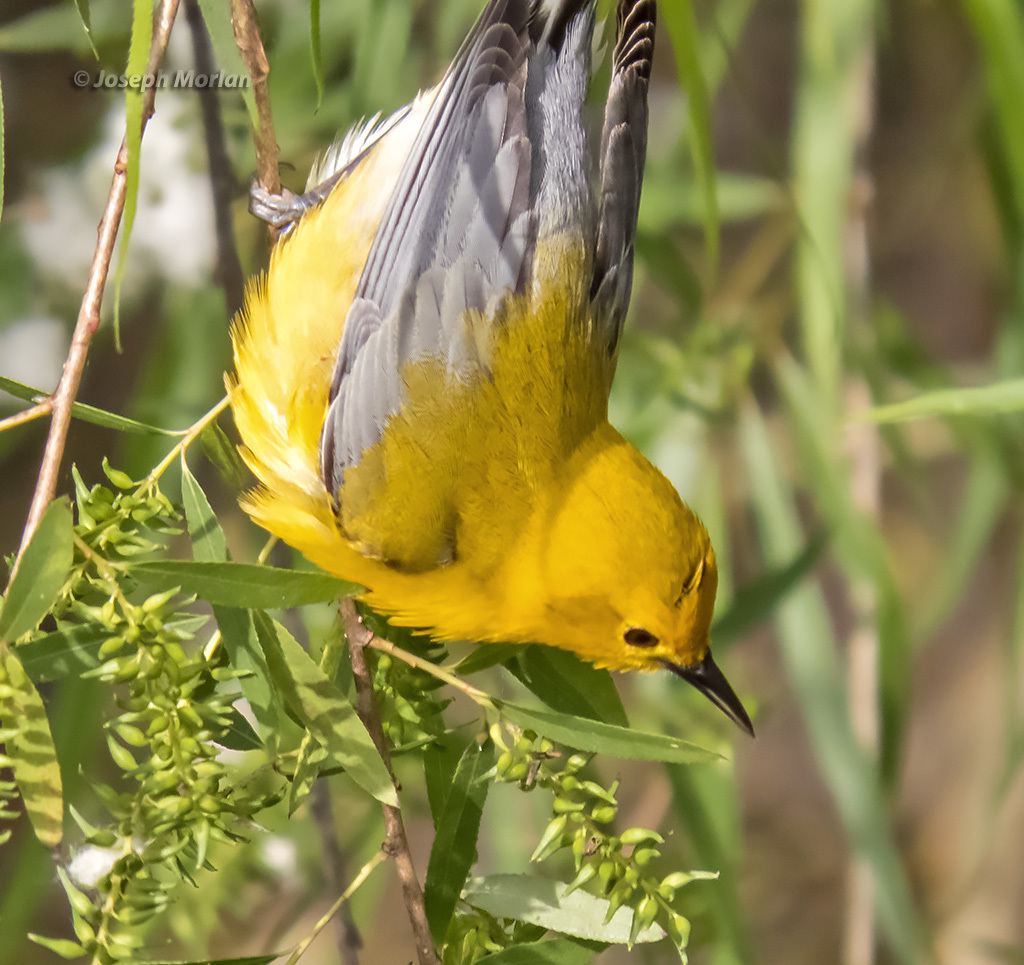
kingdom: Animalia
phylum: Chordata
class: Aves
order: Passeriformes
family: Parulidae
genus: Protonotaria
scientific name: Protonotaria citrea
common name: Prothonotary warbler
